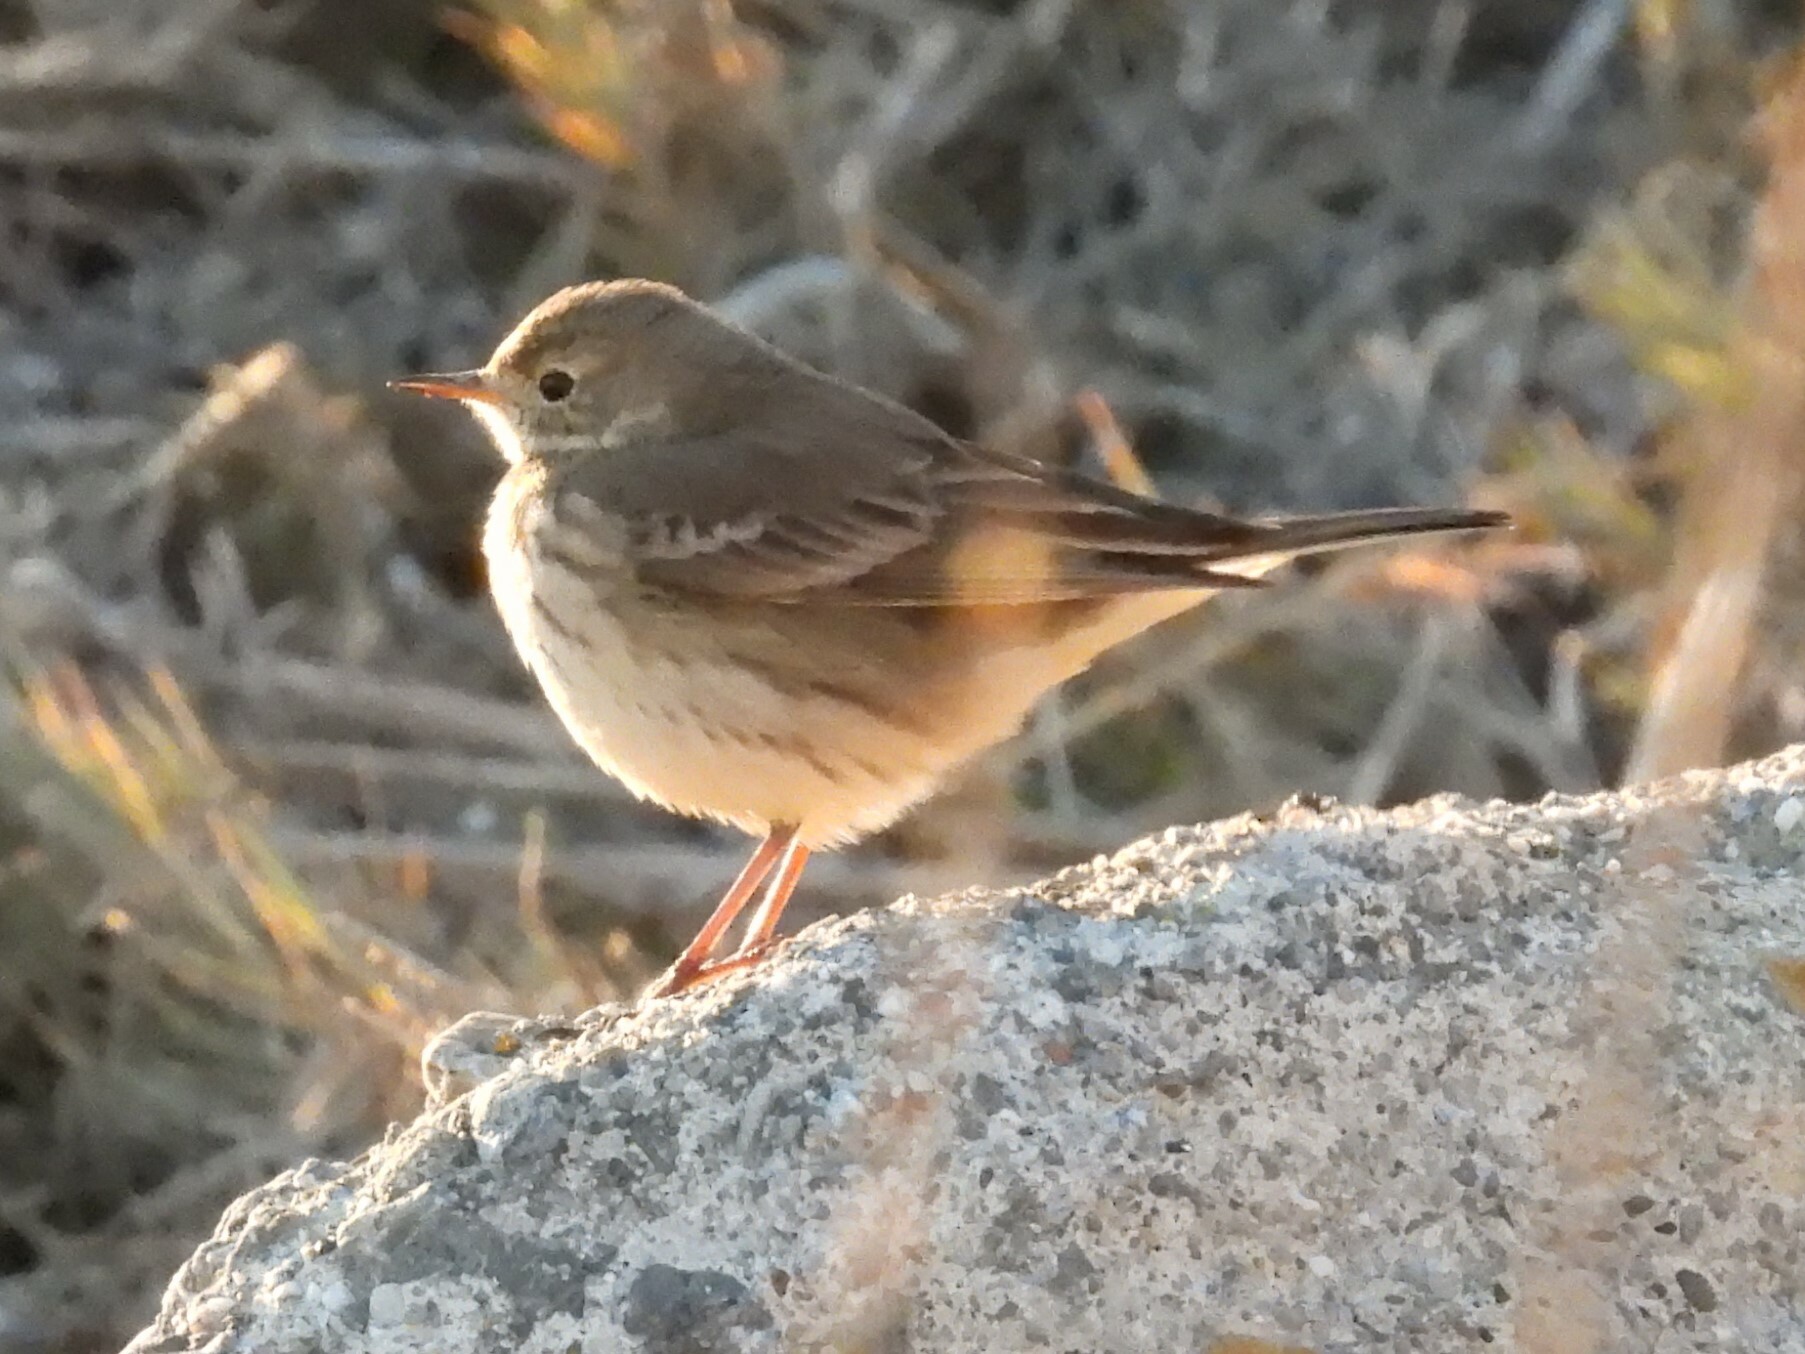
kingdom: Animalia
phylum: Chordata
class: Aves
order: Passeriformes
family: Motacillidae
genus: Anthus
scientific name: Anthus rubescens
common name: Buff-bellied pipit
